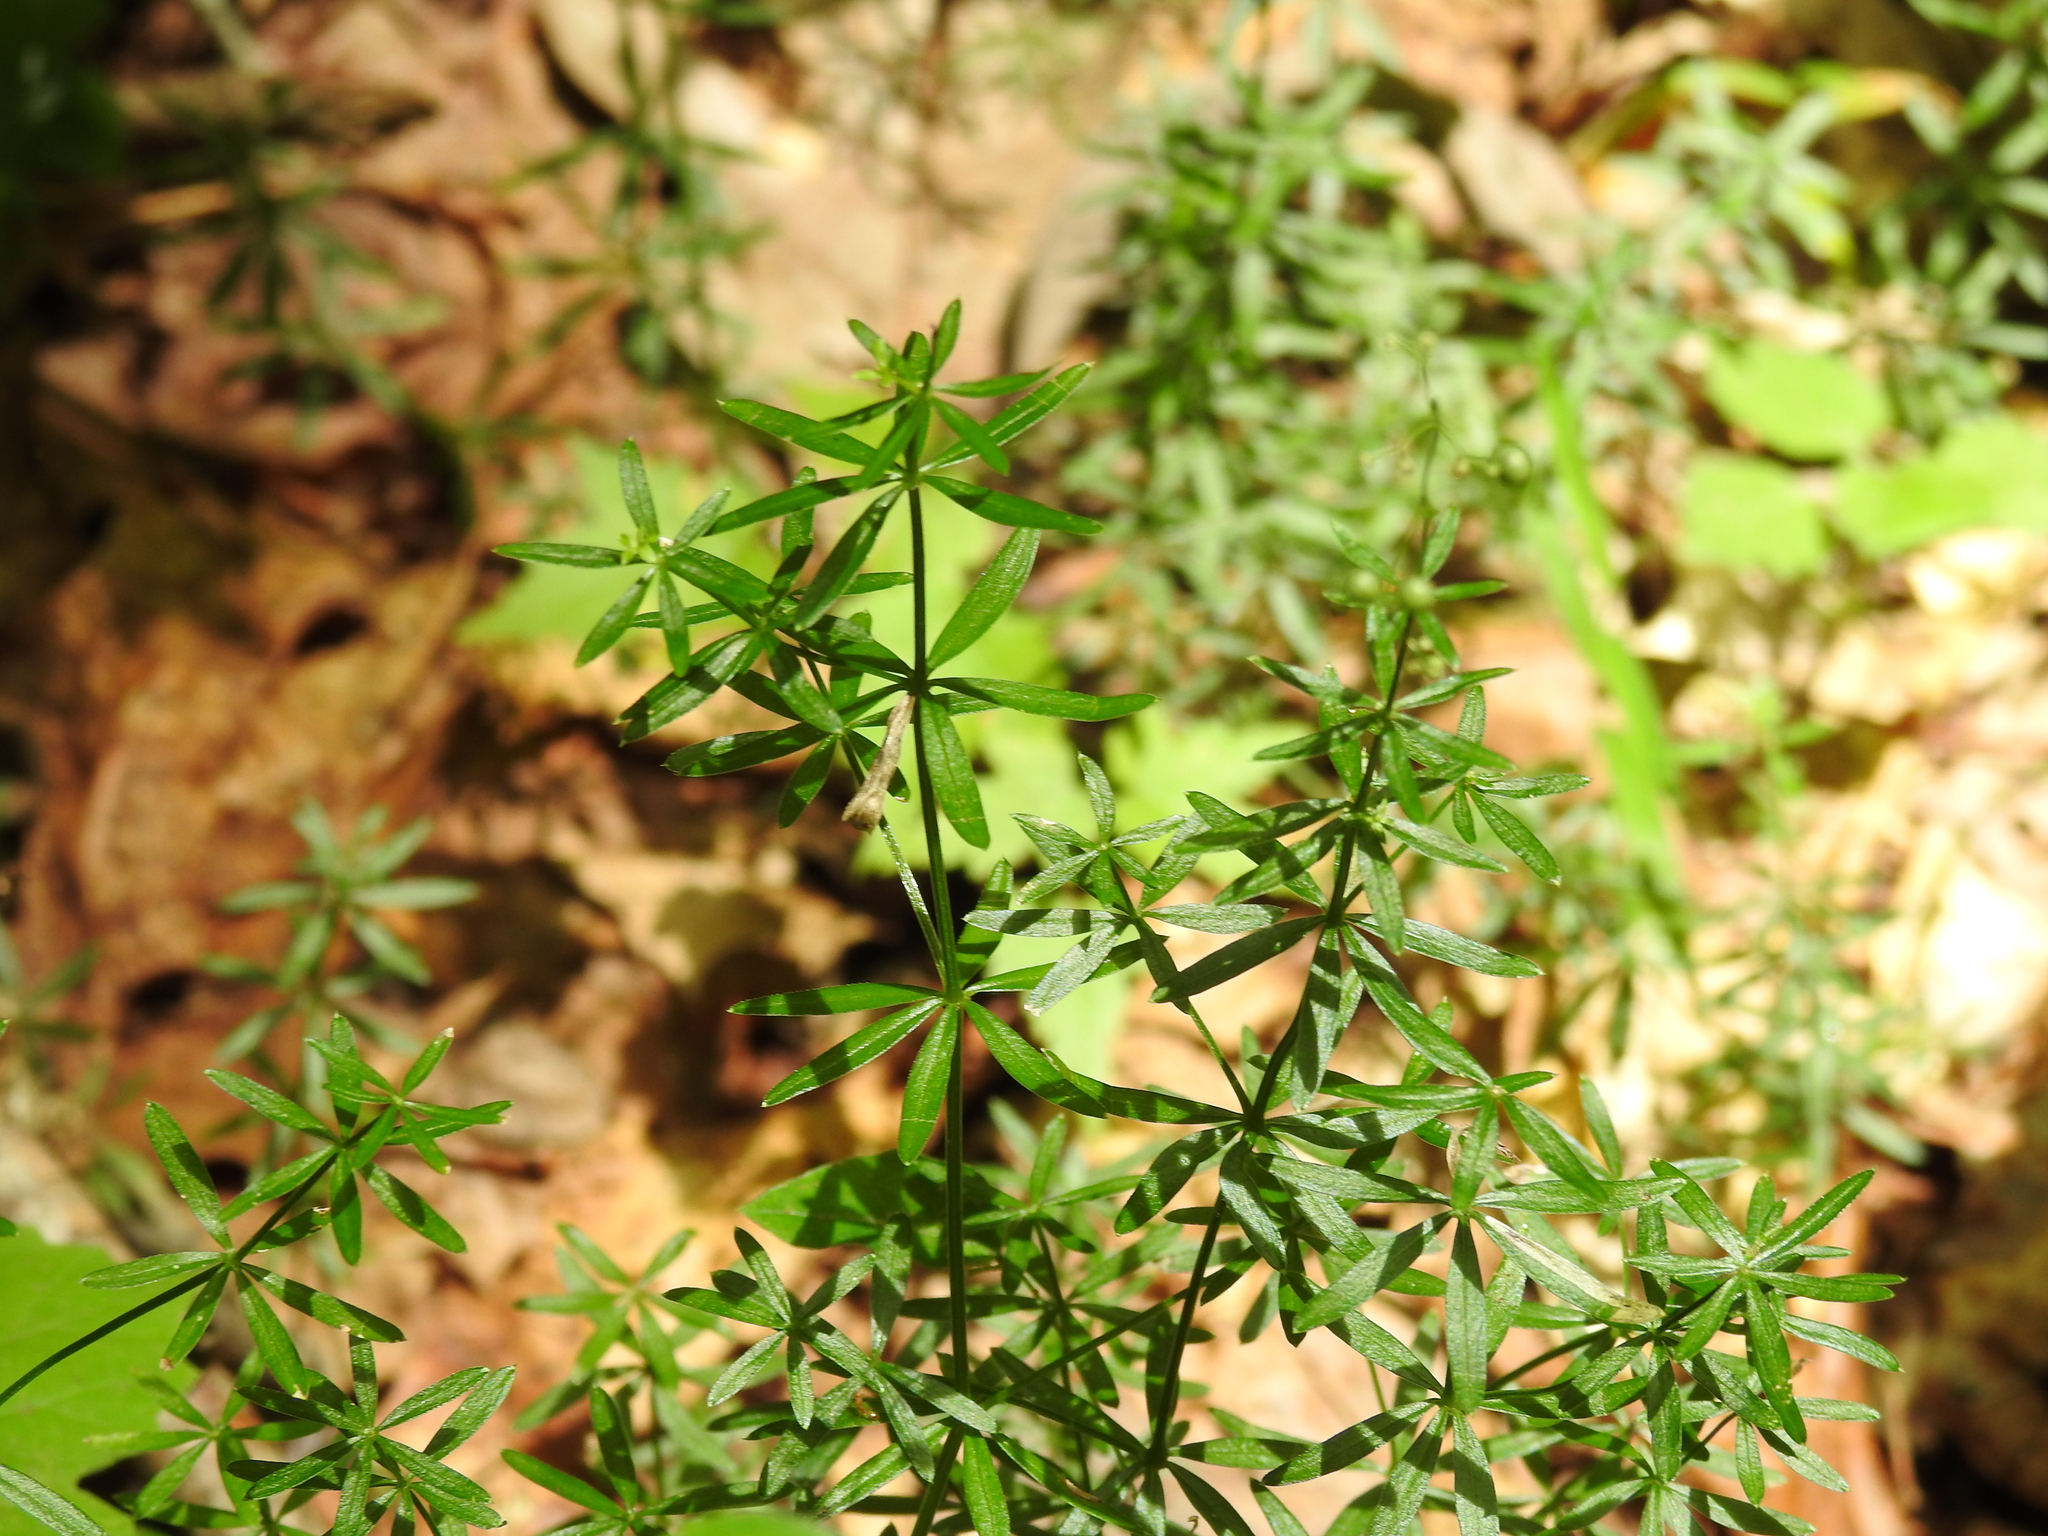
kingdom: Plantae
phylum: Tracheophyta
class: Magnoliopsida
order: Gentianales
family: Rubiaceae
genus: Galium
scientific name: Galium concinnum
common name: Shining bedstraw
